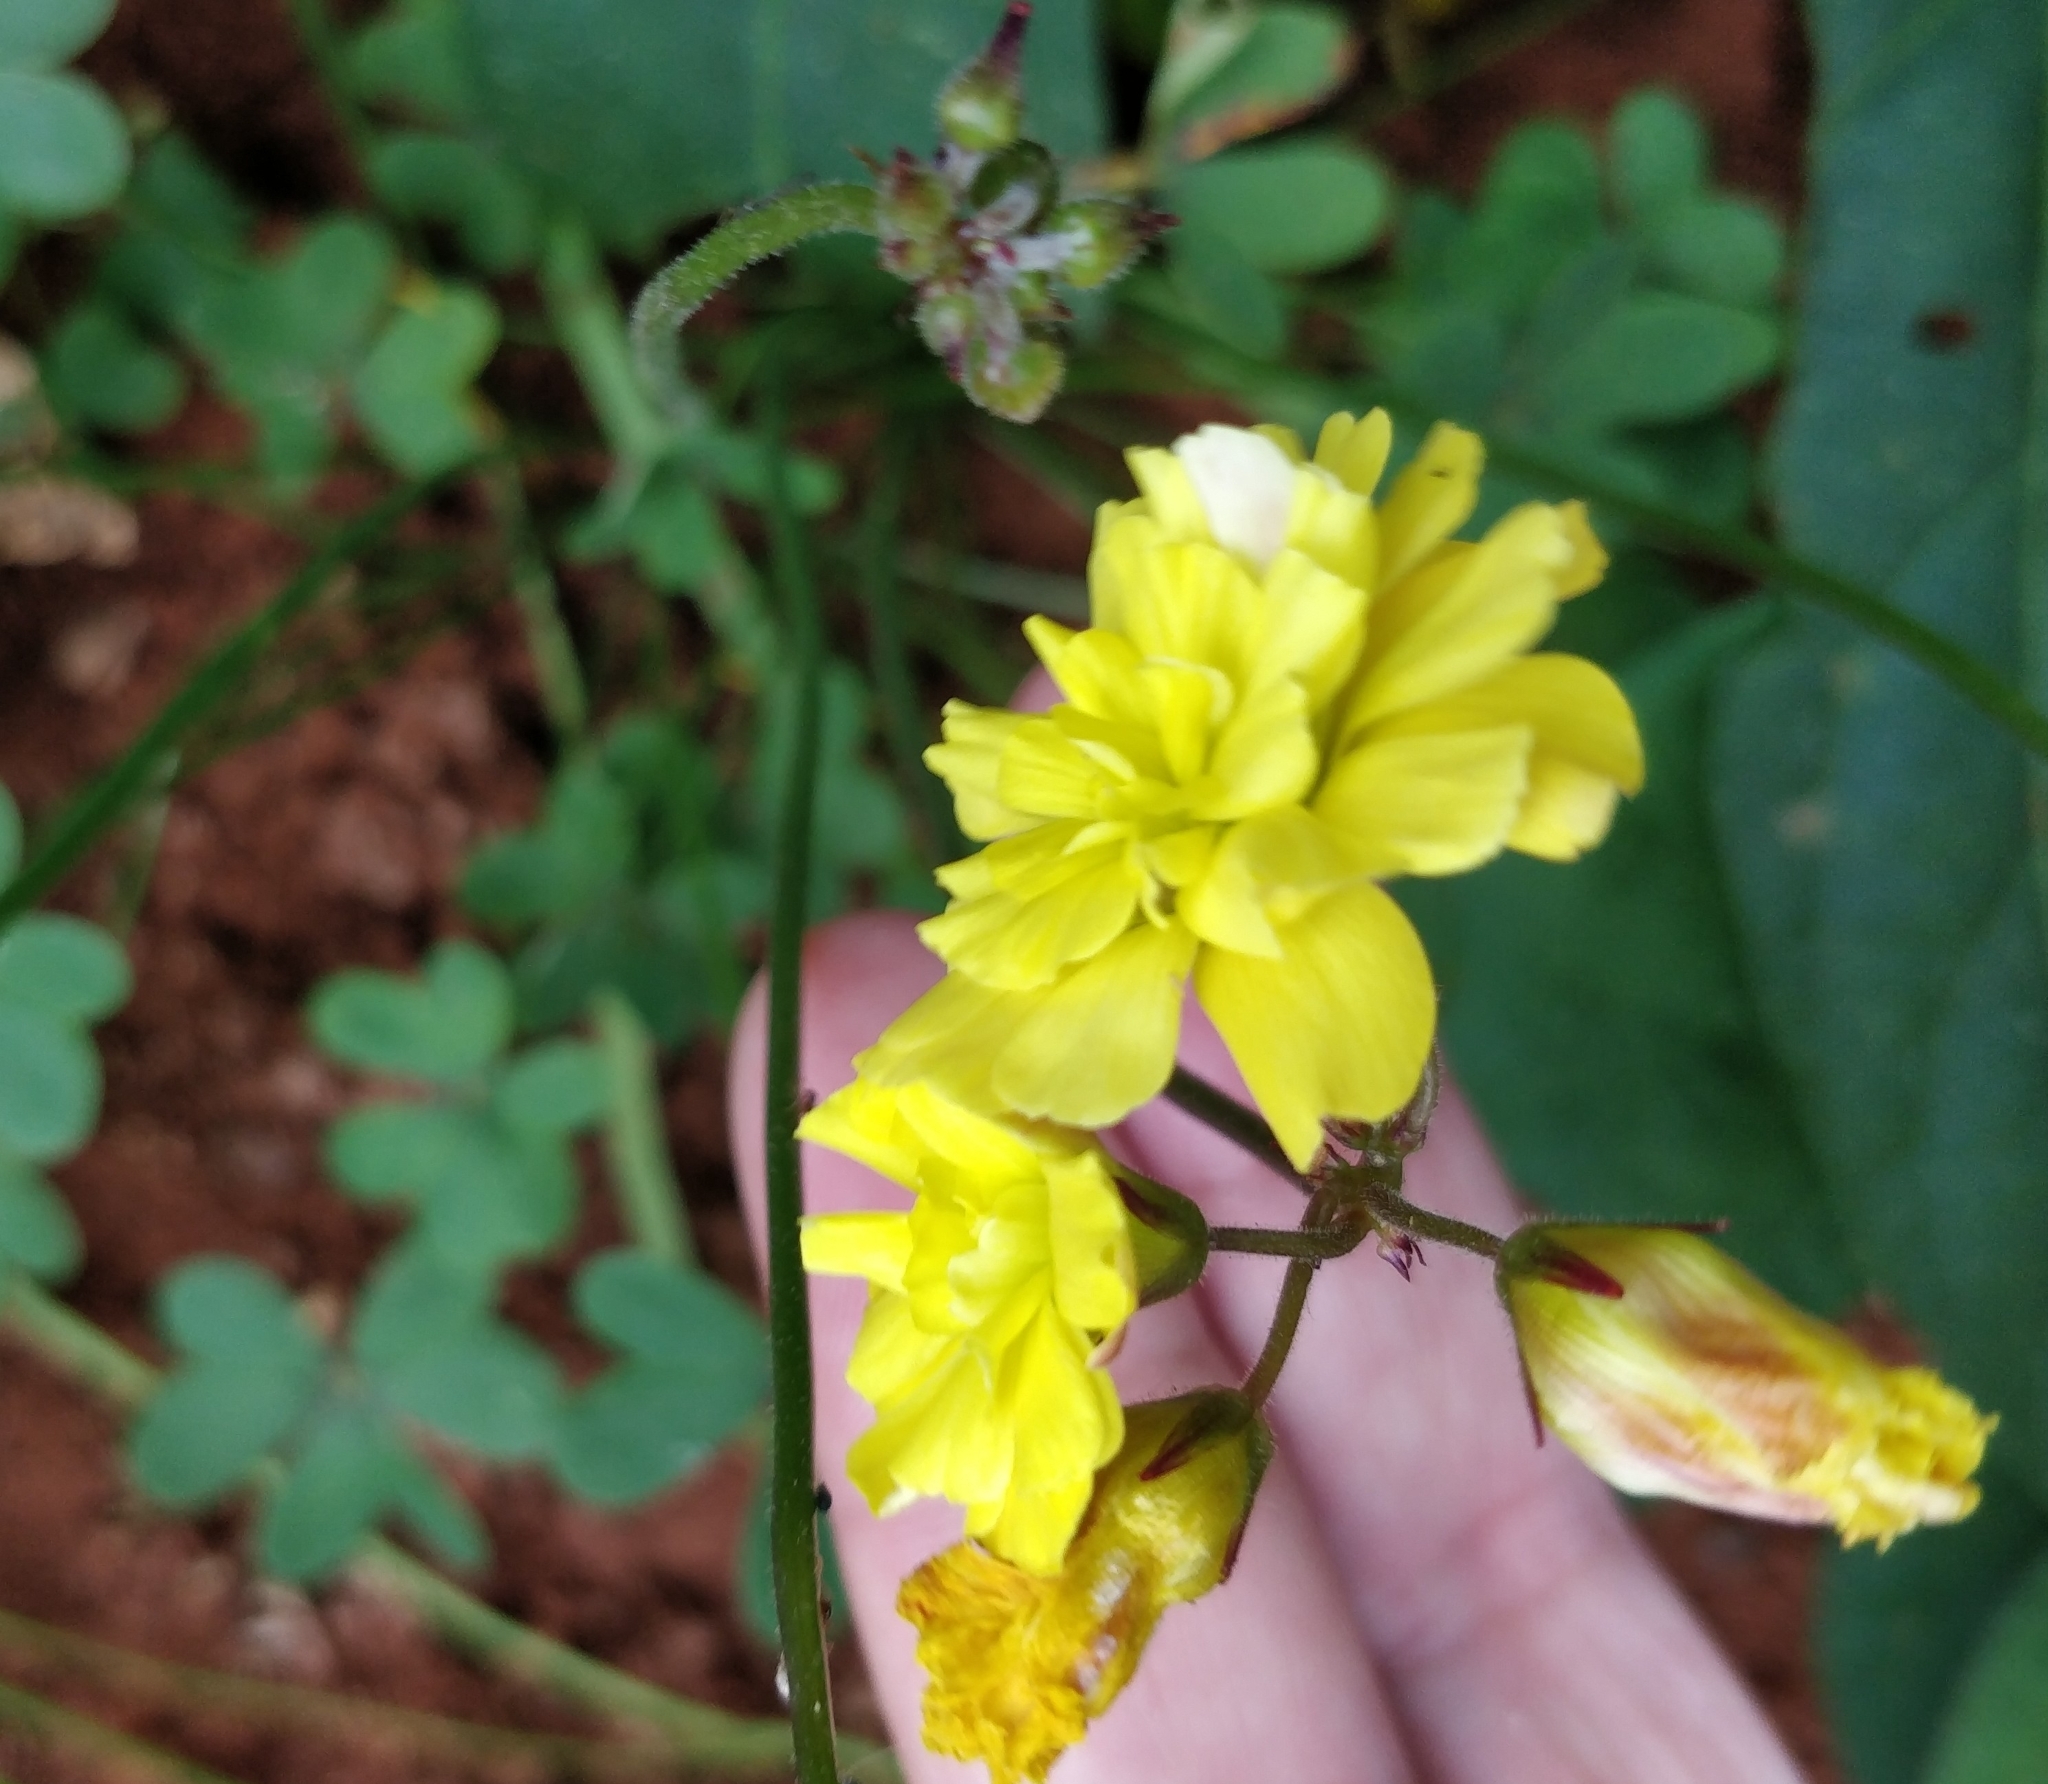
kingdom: Plantae
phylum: Tracheophyta
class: Magnoliopsida
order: Oxalidales
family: Oxalidaceae
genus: Oxalis
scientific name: Oxalis pes-caprae
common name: Bermuda-buttercup
